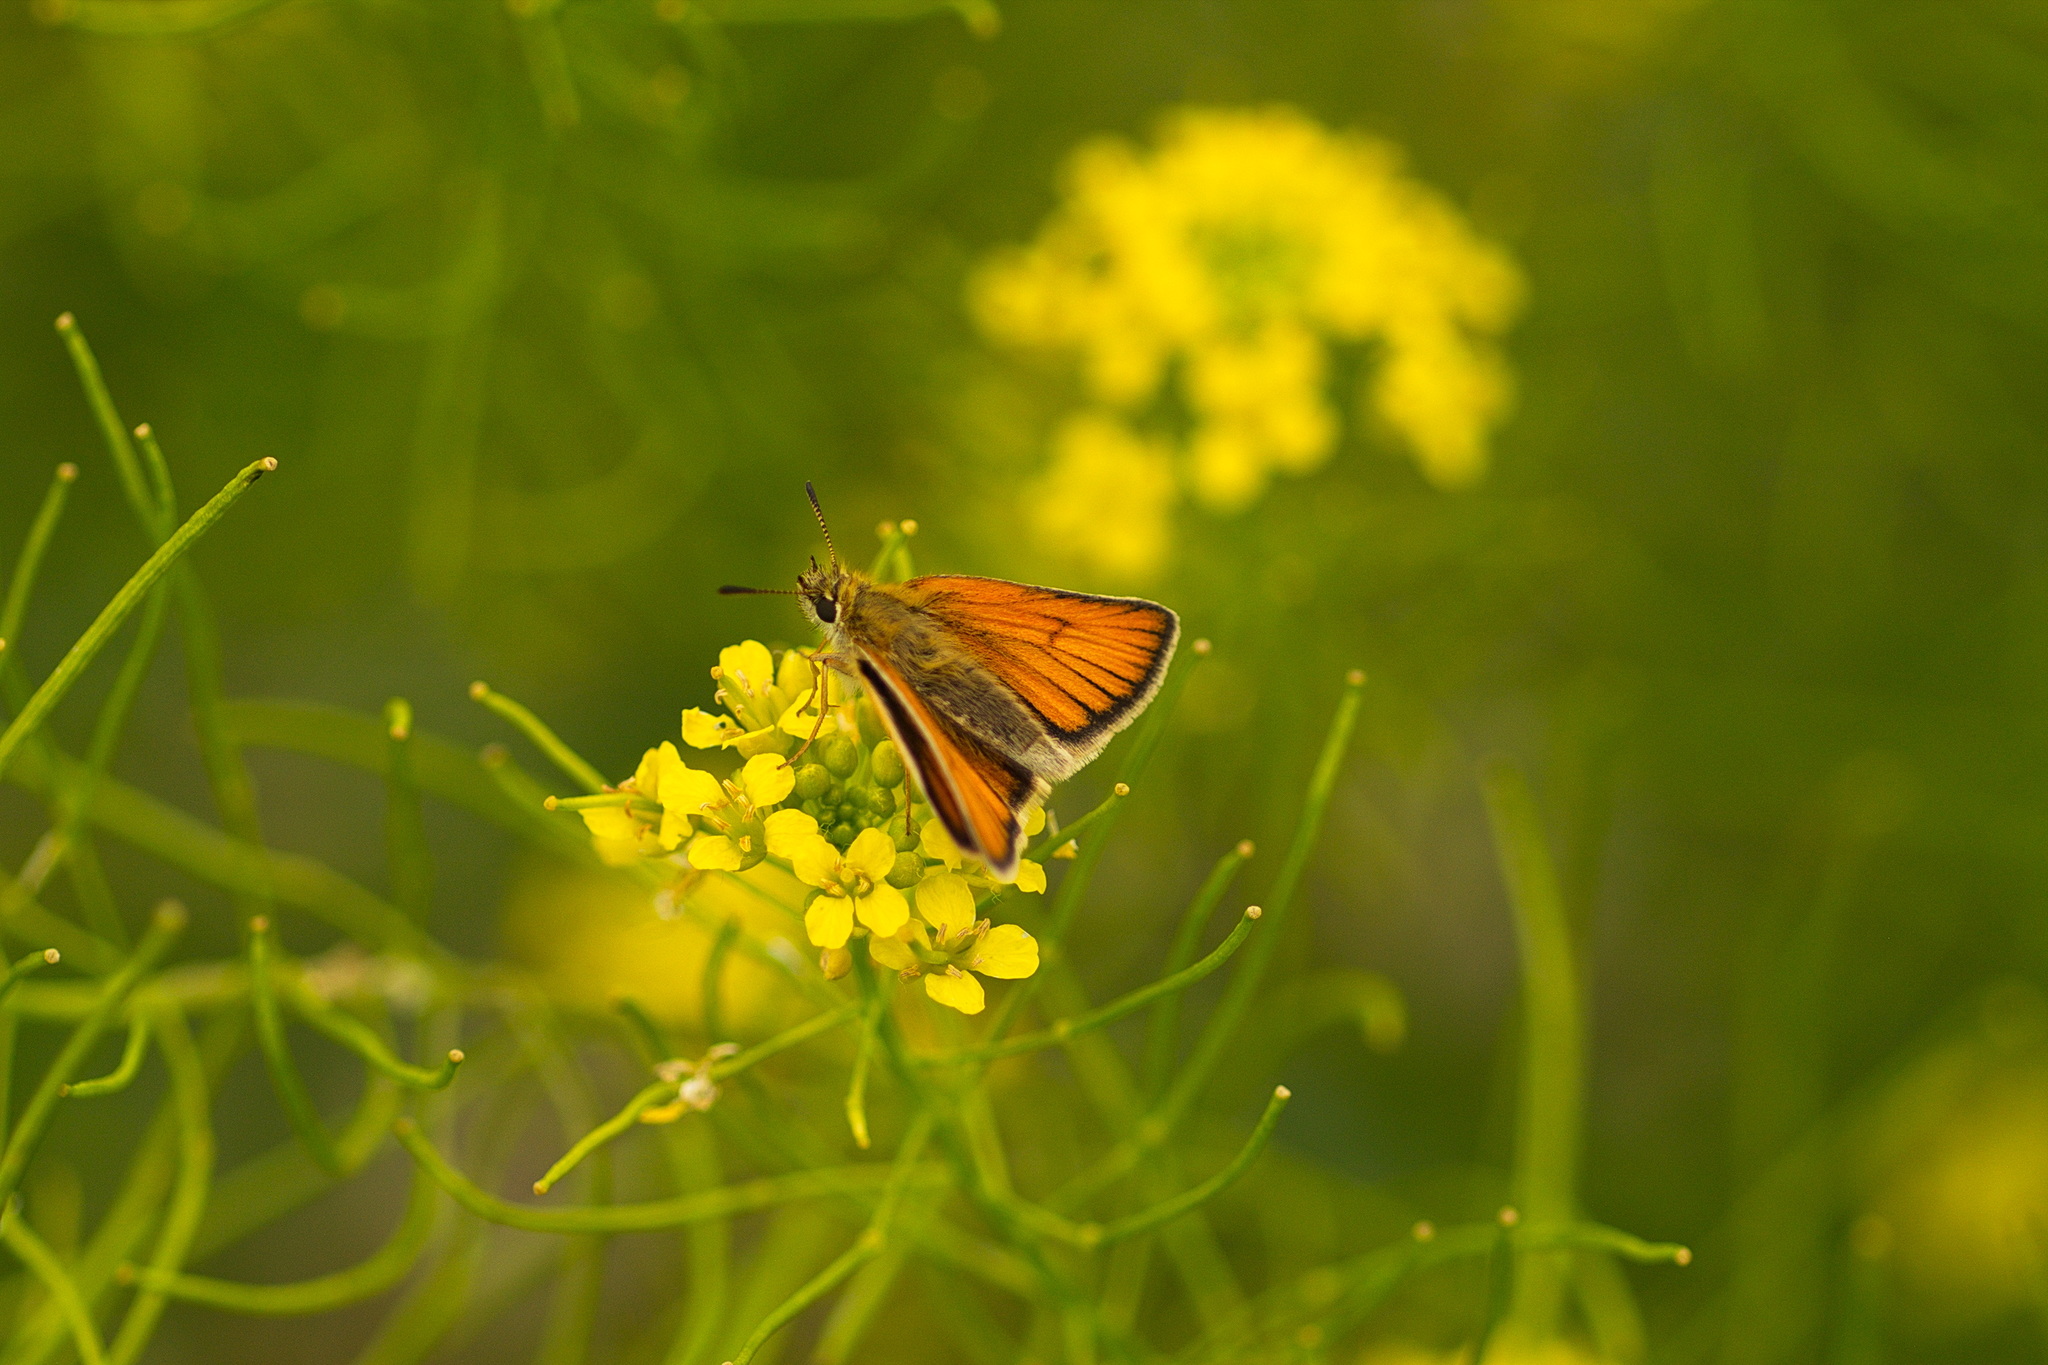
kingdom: Animalia
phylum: Arthropoda
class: Insecta
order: Lepidoptera
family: Hesperiidae
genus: Thymelicus
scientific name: Thymelicus lineola
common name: Essex skipper
